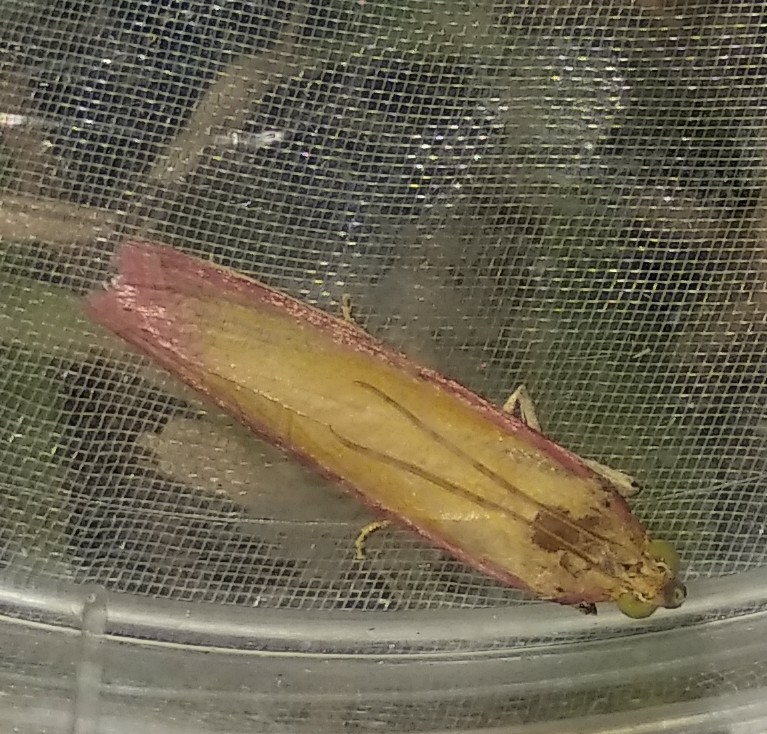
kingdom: Animalia
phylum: Arthropoda
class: Insecta
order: Lepidoptera
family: Pyralidae
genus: Oncocera
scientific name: Oncocera semirubella
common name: Rosy-striped knot-horn
